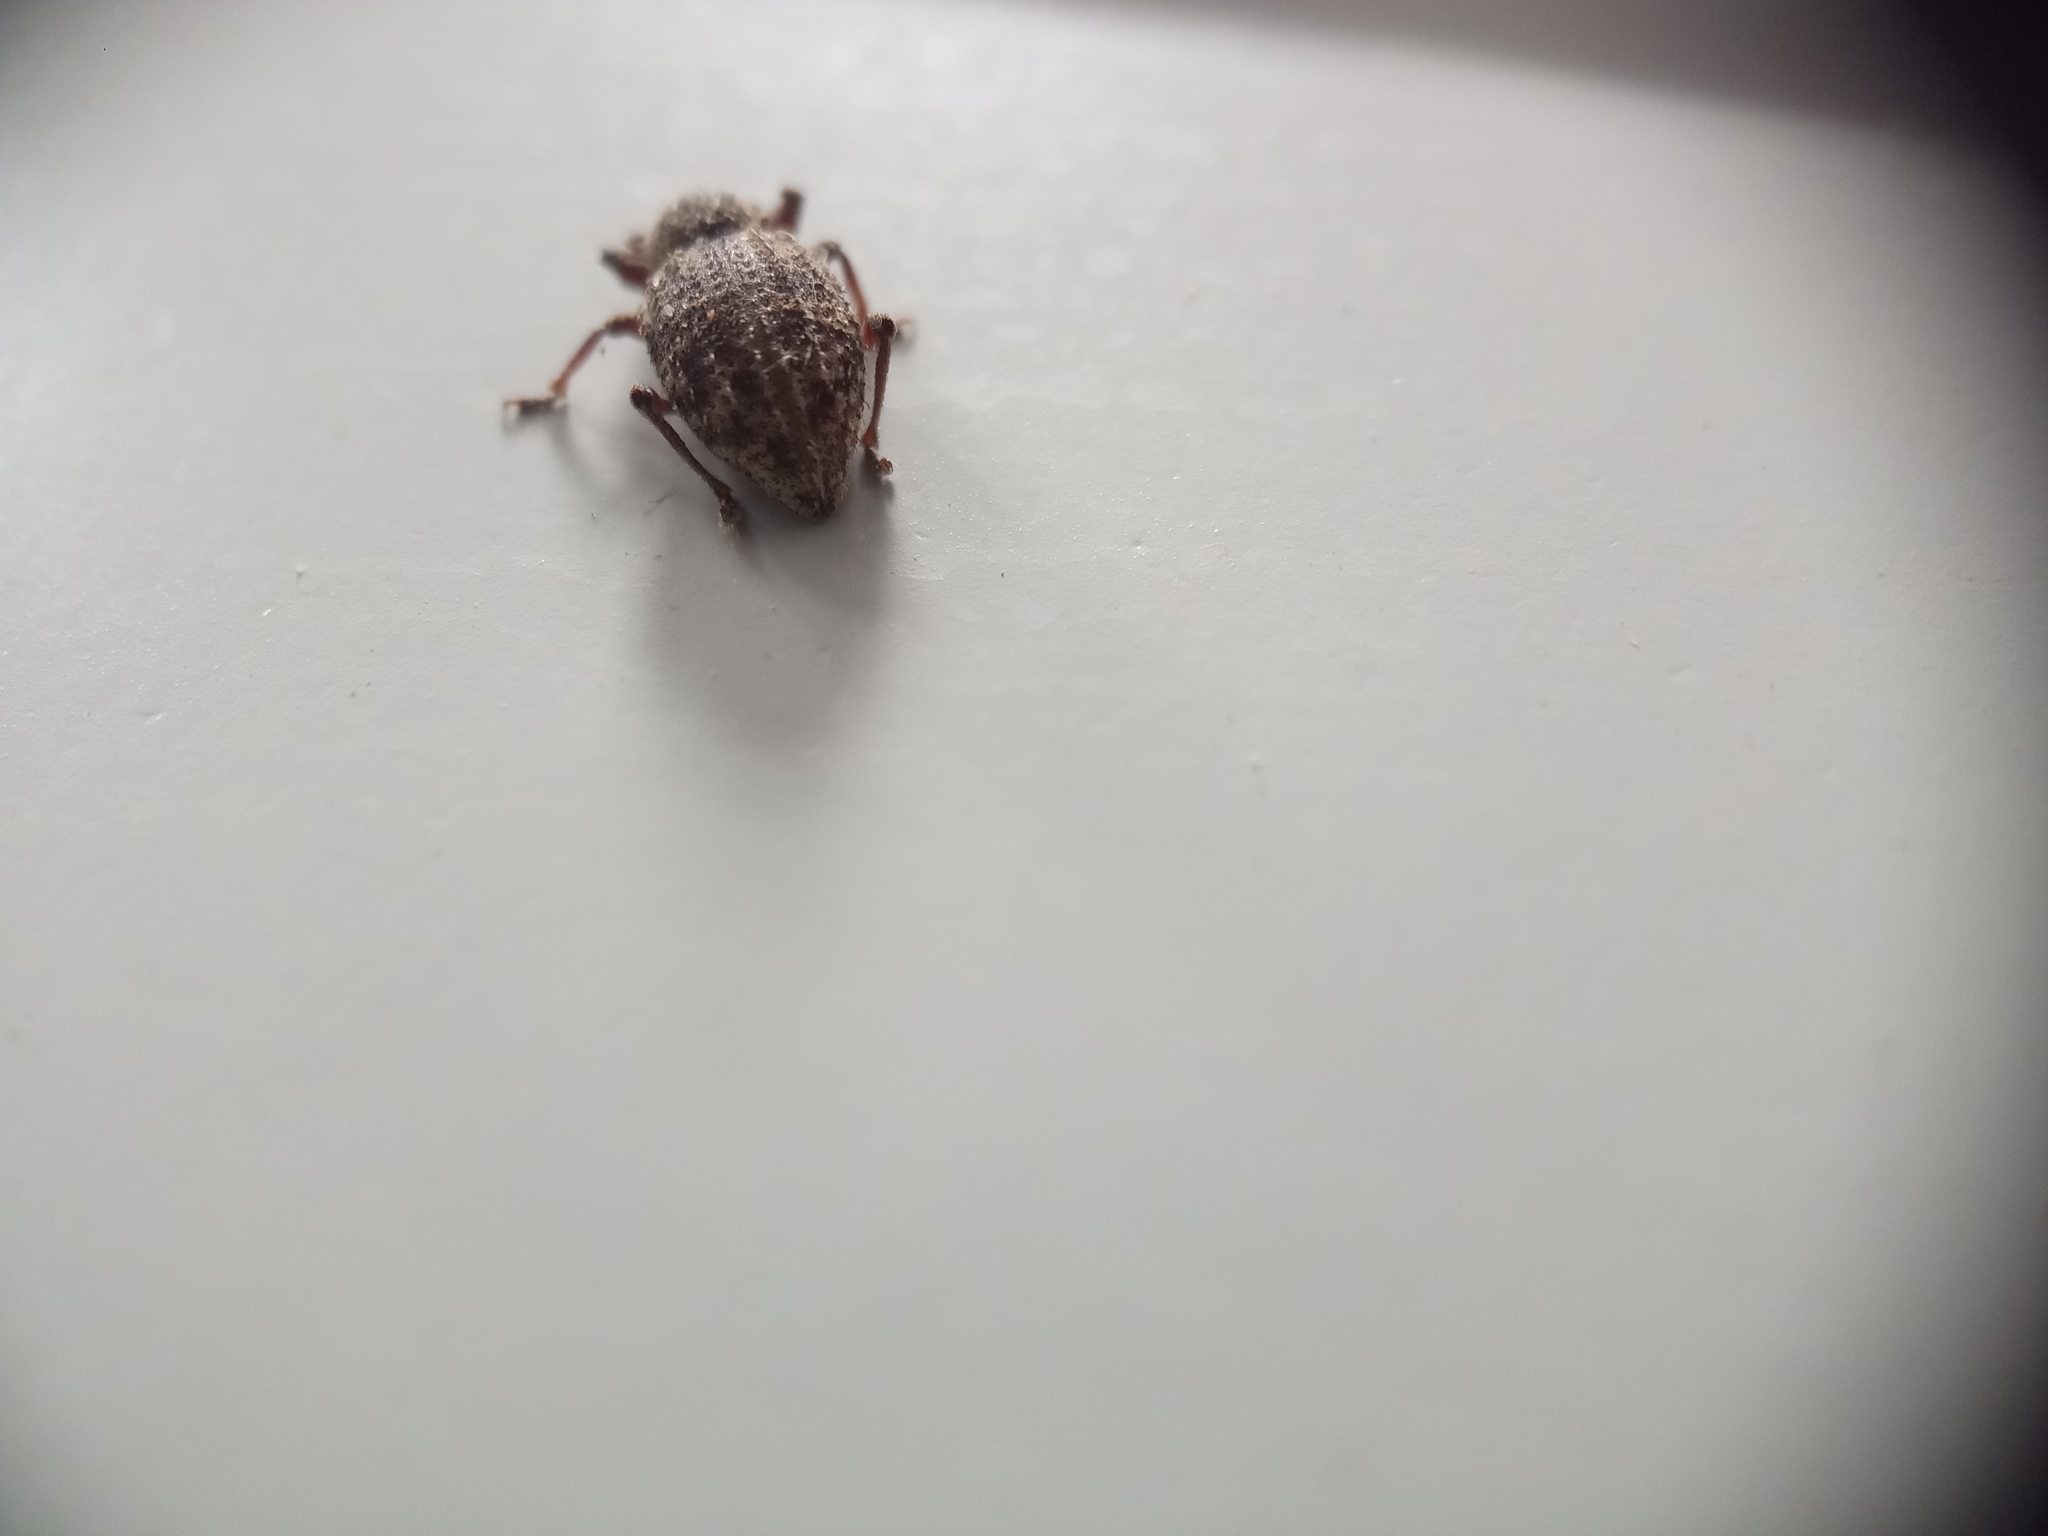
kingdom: Animalia
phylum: Arthropoda
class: Insecta
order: Coleoptera
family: Curculionidae
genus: Otiorhynchus
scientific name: Otiorhynchus carinatopunctatus
